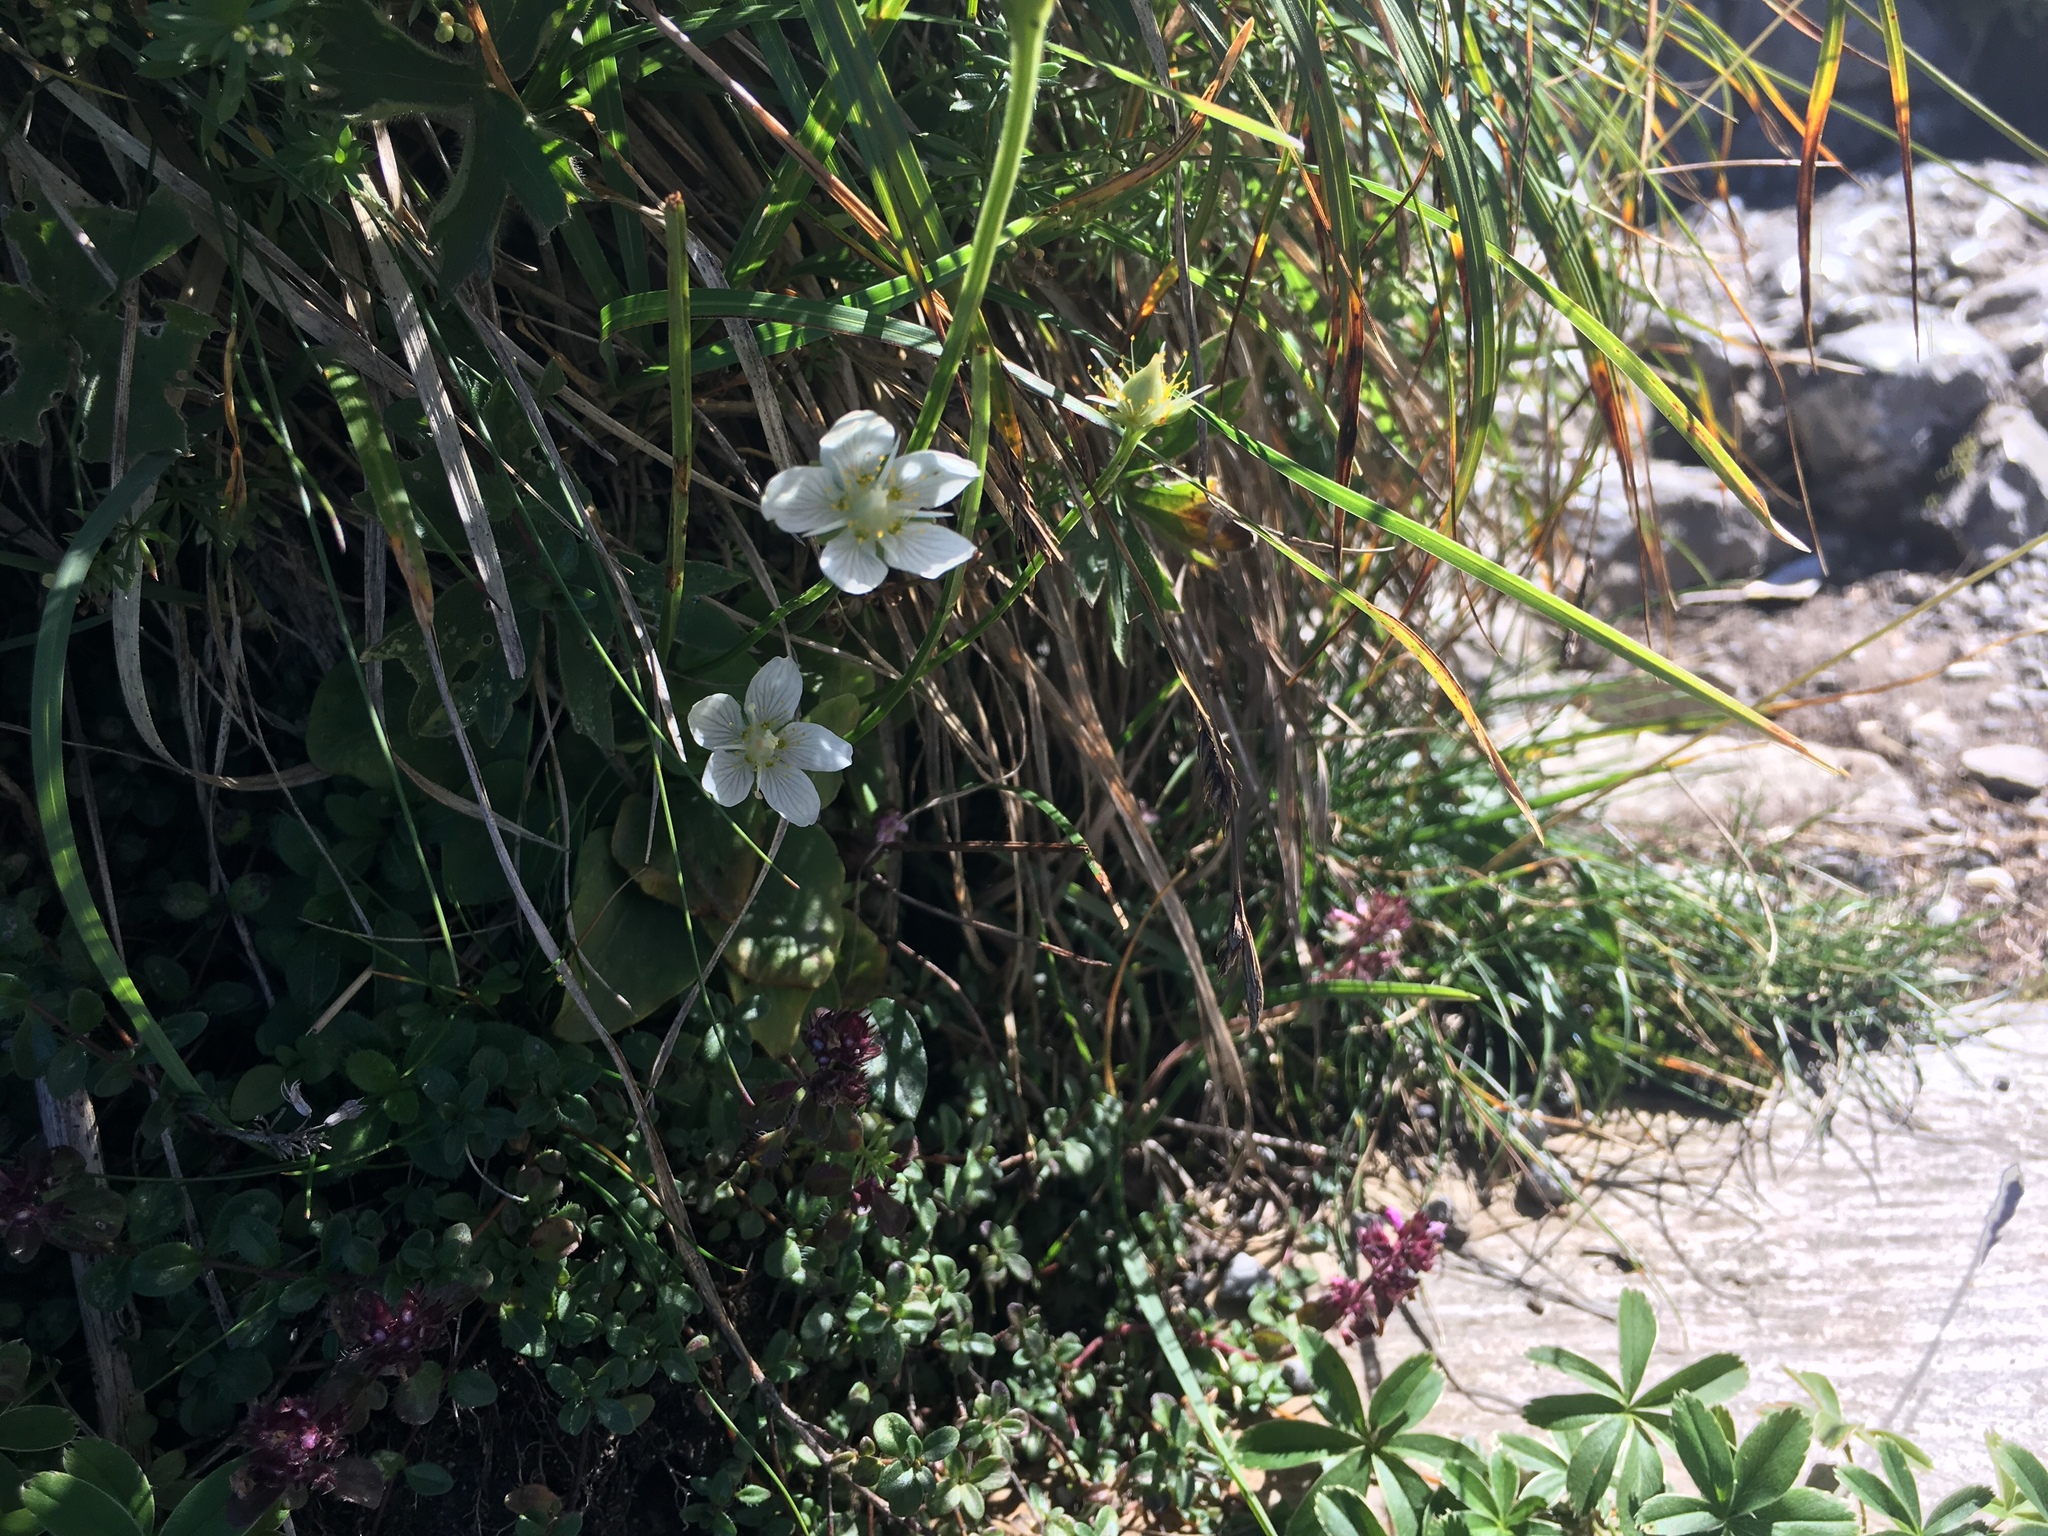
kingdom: Plantae
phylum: Tracheophyta
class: Magnoliopsida
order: Celastrales
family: Parnassiaceae
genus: Parnassia
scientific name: Parnassia palustris
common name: Grass-of-parnassus
